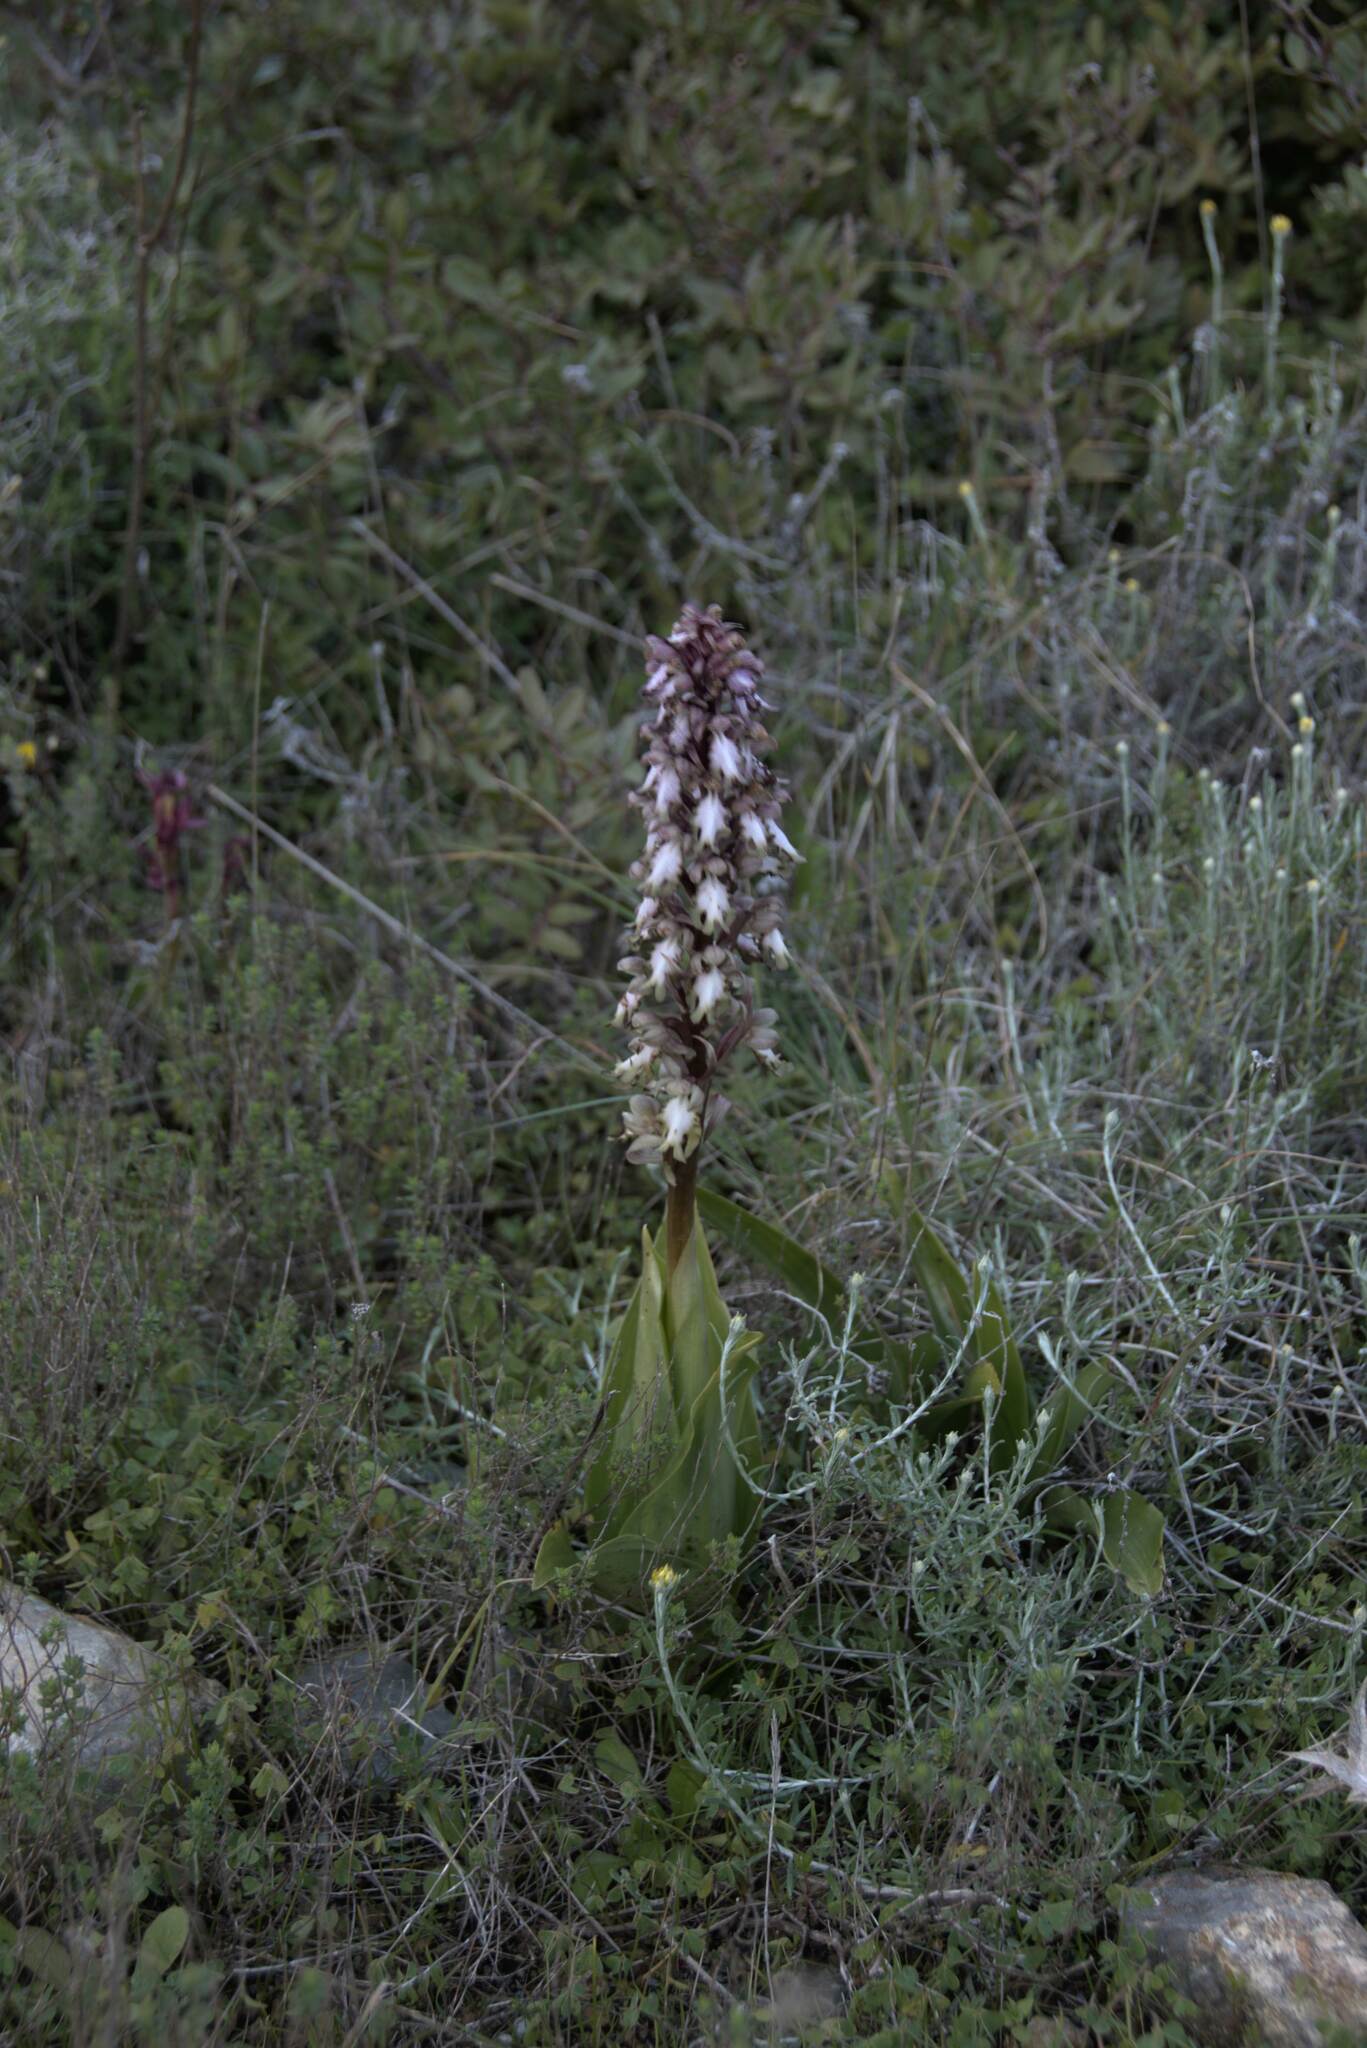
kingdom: Plantae
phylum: Tracheophyta
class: Liliopsida
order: Asparagales
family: Orchidaceae
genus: Himantoglossum
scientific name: Himantoglossum robertianum
